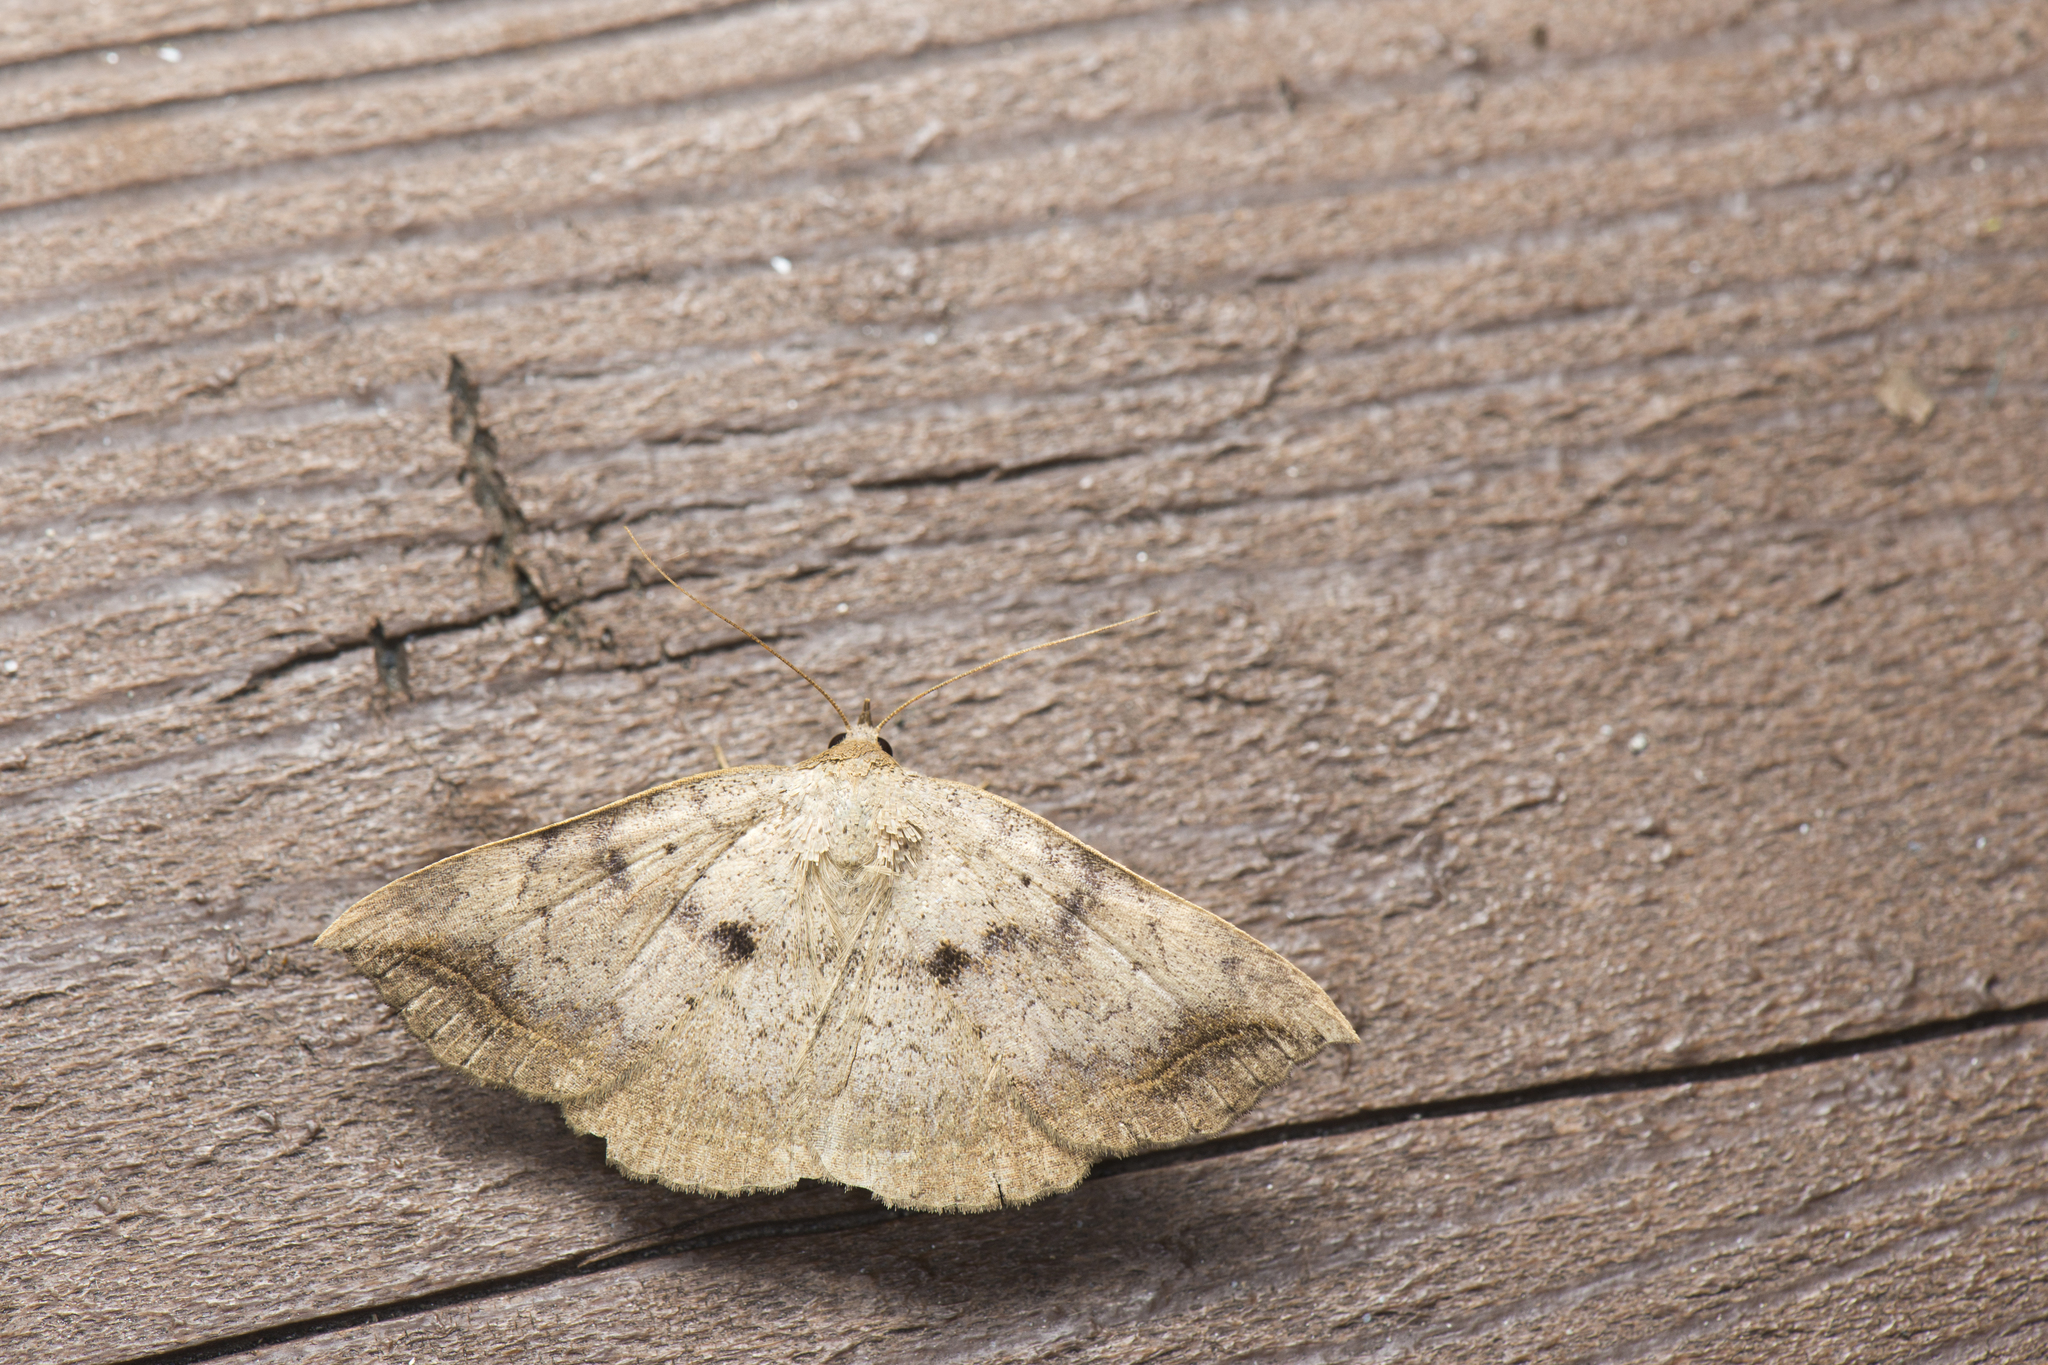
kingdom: Animalia
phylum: Arthropoda
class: Insecta
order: Lepidoptera
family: Erebidae
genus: Blasticorhinus
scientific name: Blasticorhinus ussuriensis
